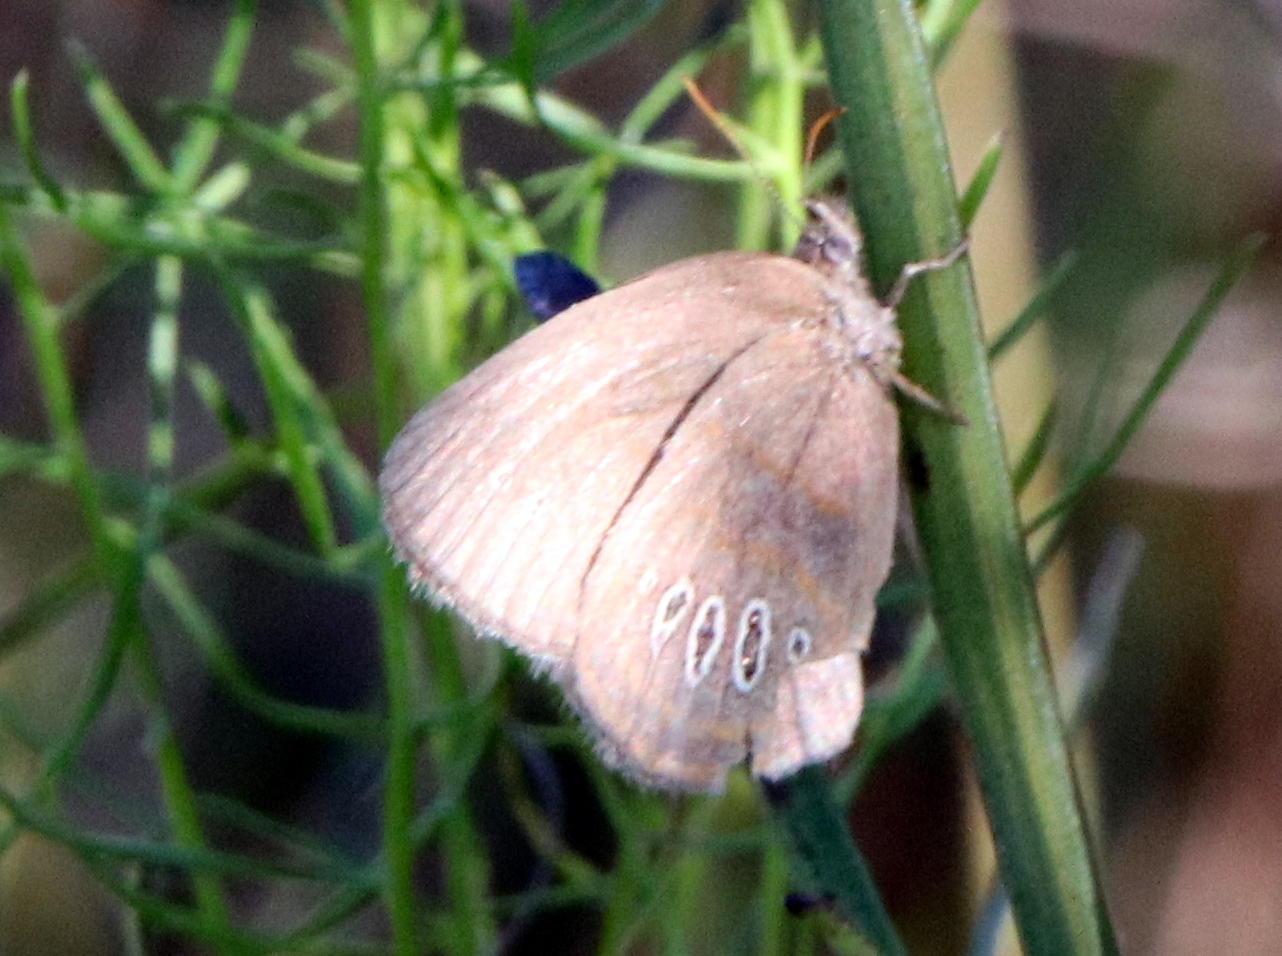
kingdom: Animalia
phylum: Arthropoda
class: Insecta
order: Lepidoptera
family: Nymphalidae
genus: Euptychia
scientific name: Euptychia phocion
